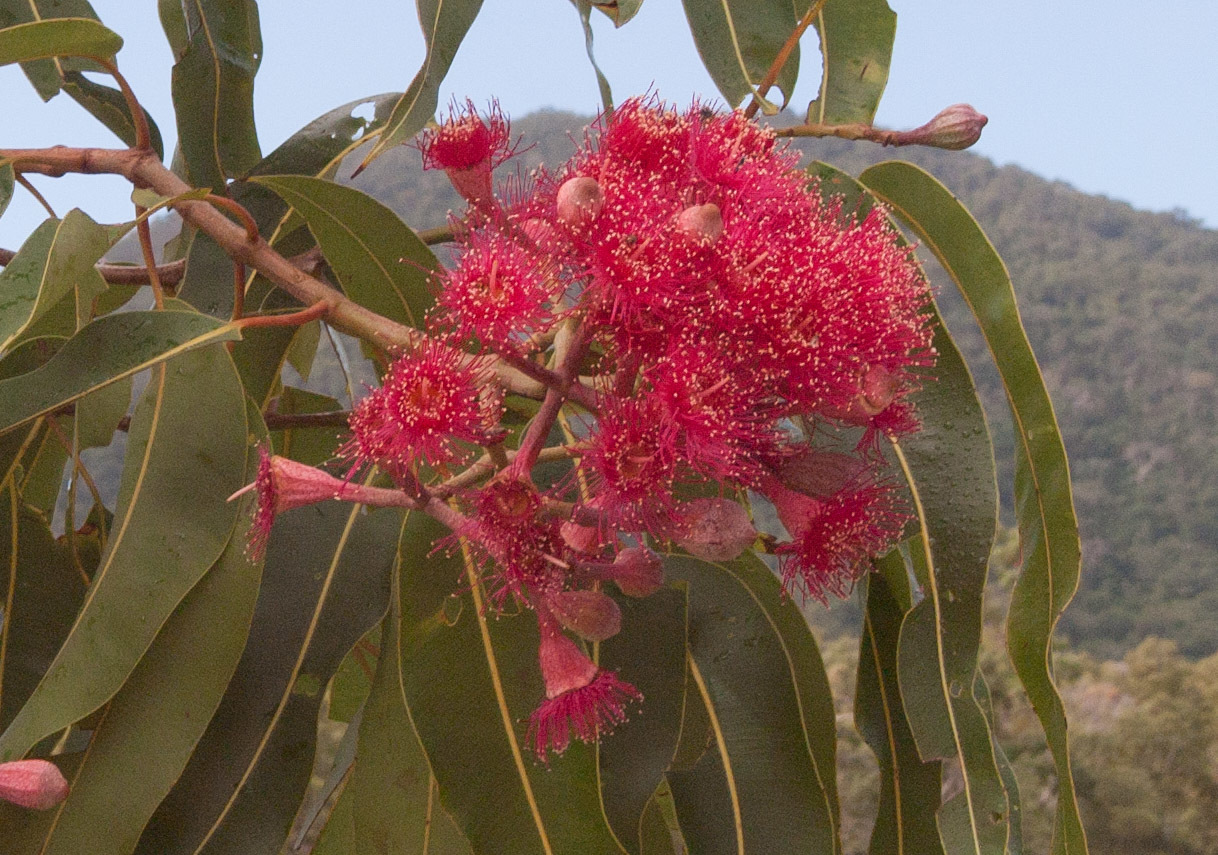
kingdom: Plantae
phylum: Tracheophyta
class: Magnoliopsida
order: Myrtales
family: Myrtaceae
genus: Corymbia
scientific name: Corymbia ptychocarpa
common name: Spring-bloodwood
